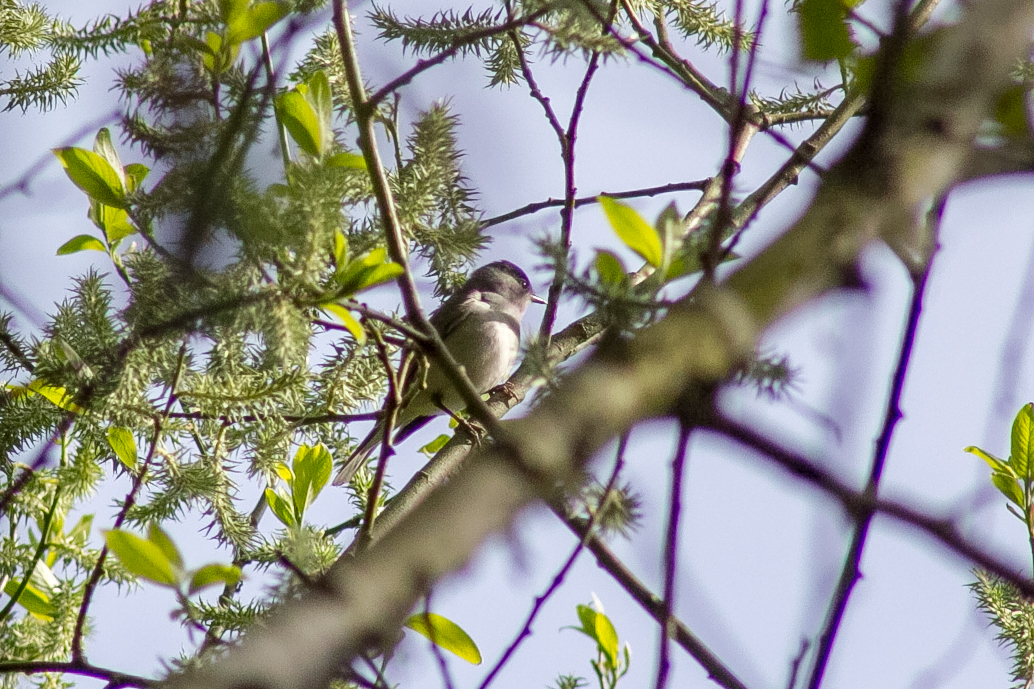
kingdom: Animalia
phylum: Chordata
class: Aves
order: Passeriformes
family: Sylviidae
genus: Sylvia
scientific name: Sylvia atricapilla
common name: Eurasian blackcap
